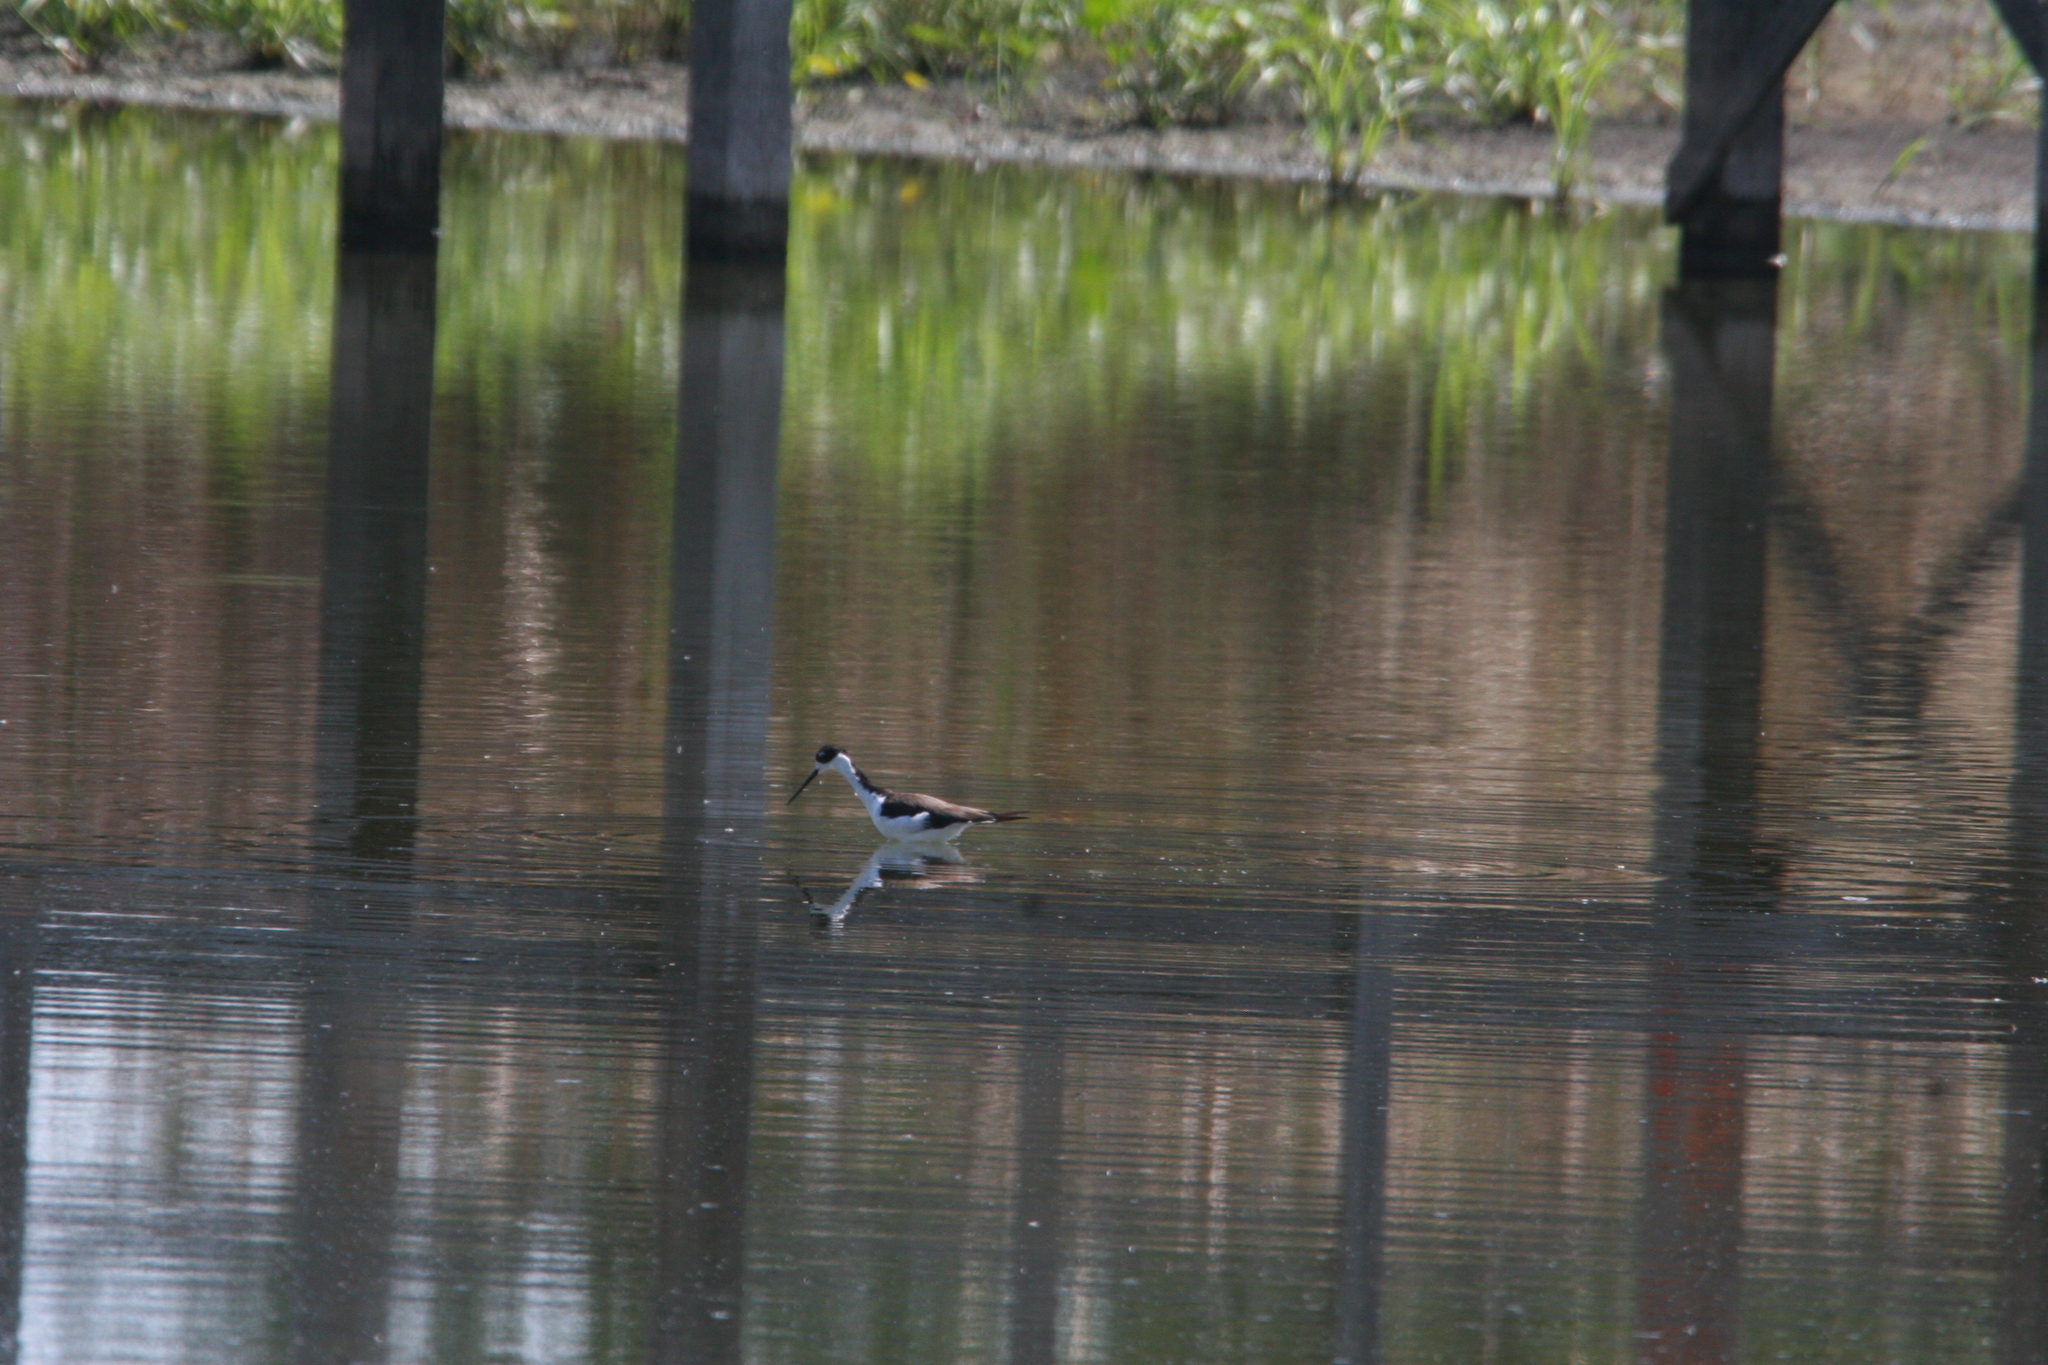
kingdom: Animalia
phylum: Chordata
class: Aves
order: Charadriiformes
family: Recurvirostridae
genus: Himantopus
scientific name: Himantopus mexicanus
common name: Black-necked stilt
